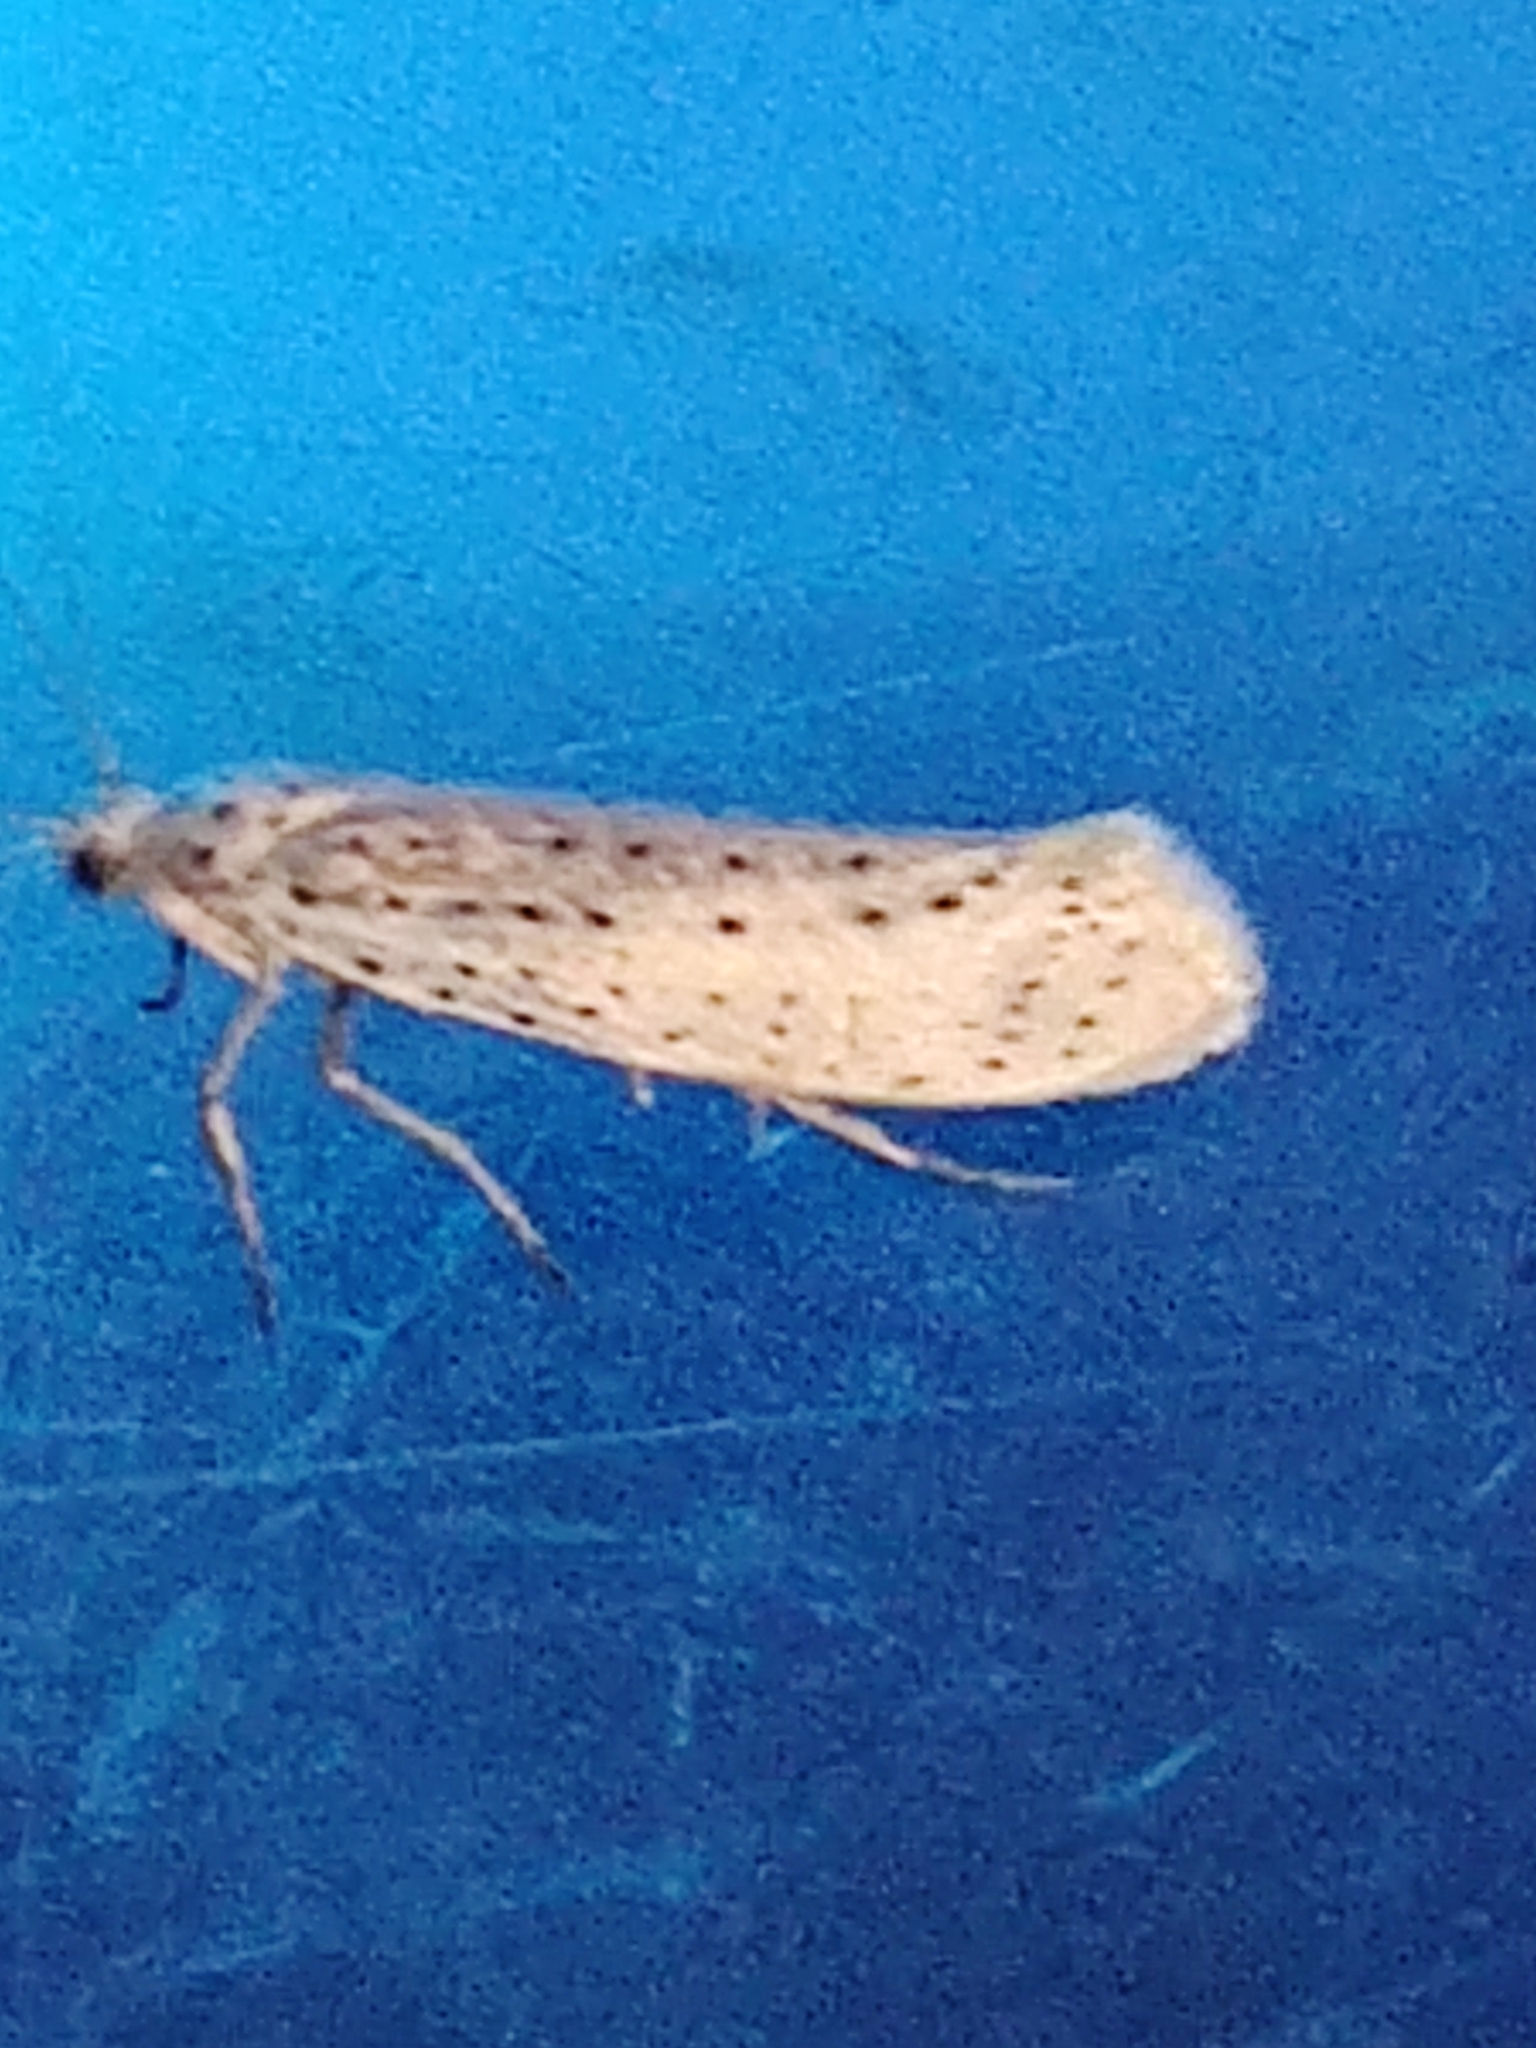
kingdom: Animalia
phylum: Arthropoda
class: Insecta
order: Lepidoptera
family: Yponomeutidae
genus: Yponomeuta
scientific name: Yponomeuta evonymella
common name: Bird-cherry ermine
